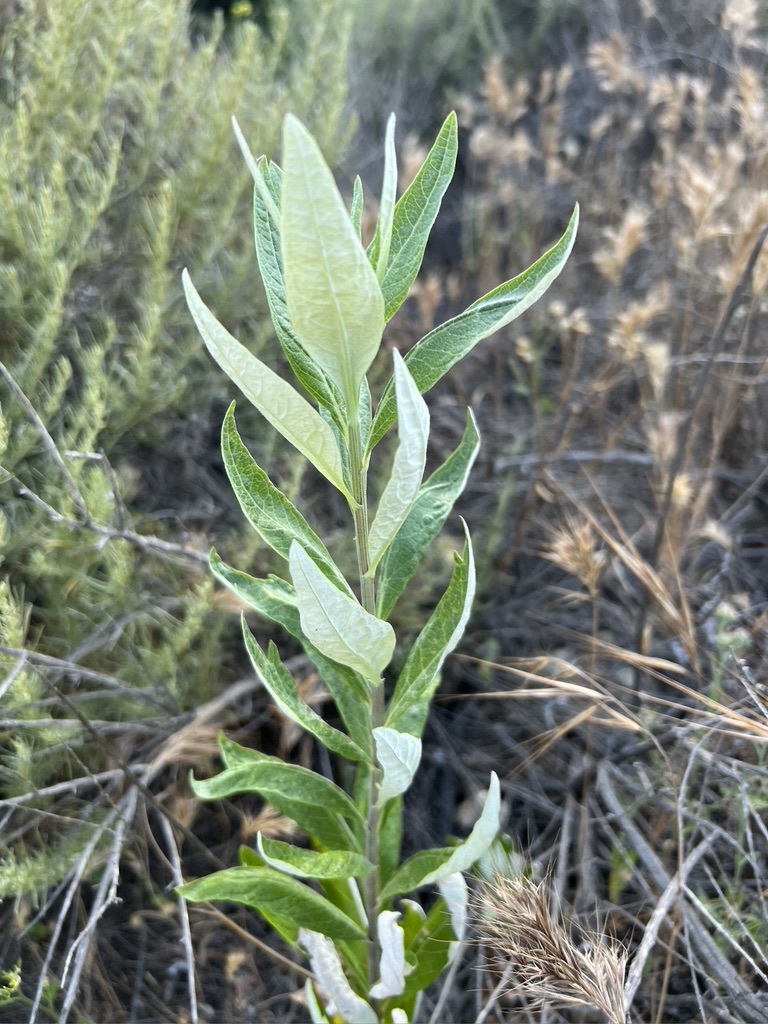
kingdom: Plantae
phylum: Tracheophyta
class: Magnoliopsida
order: Asterales
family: Asteraceae
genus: Artemisia
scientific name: Artemisia douglasiana
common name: Northwest mugwort
